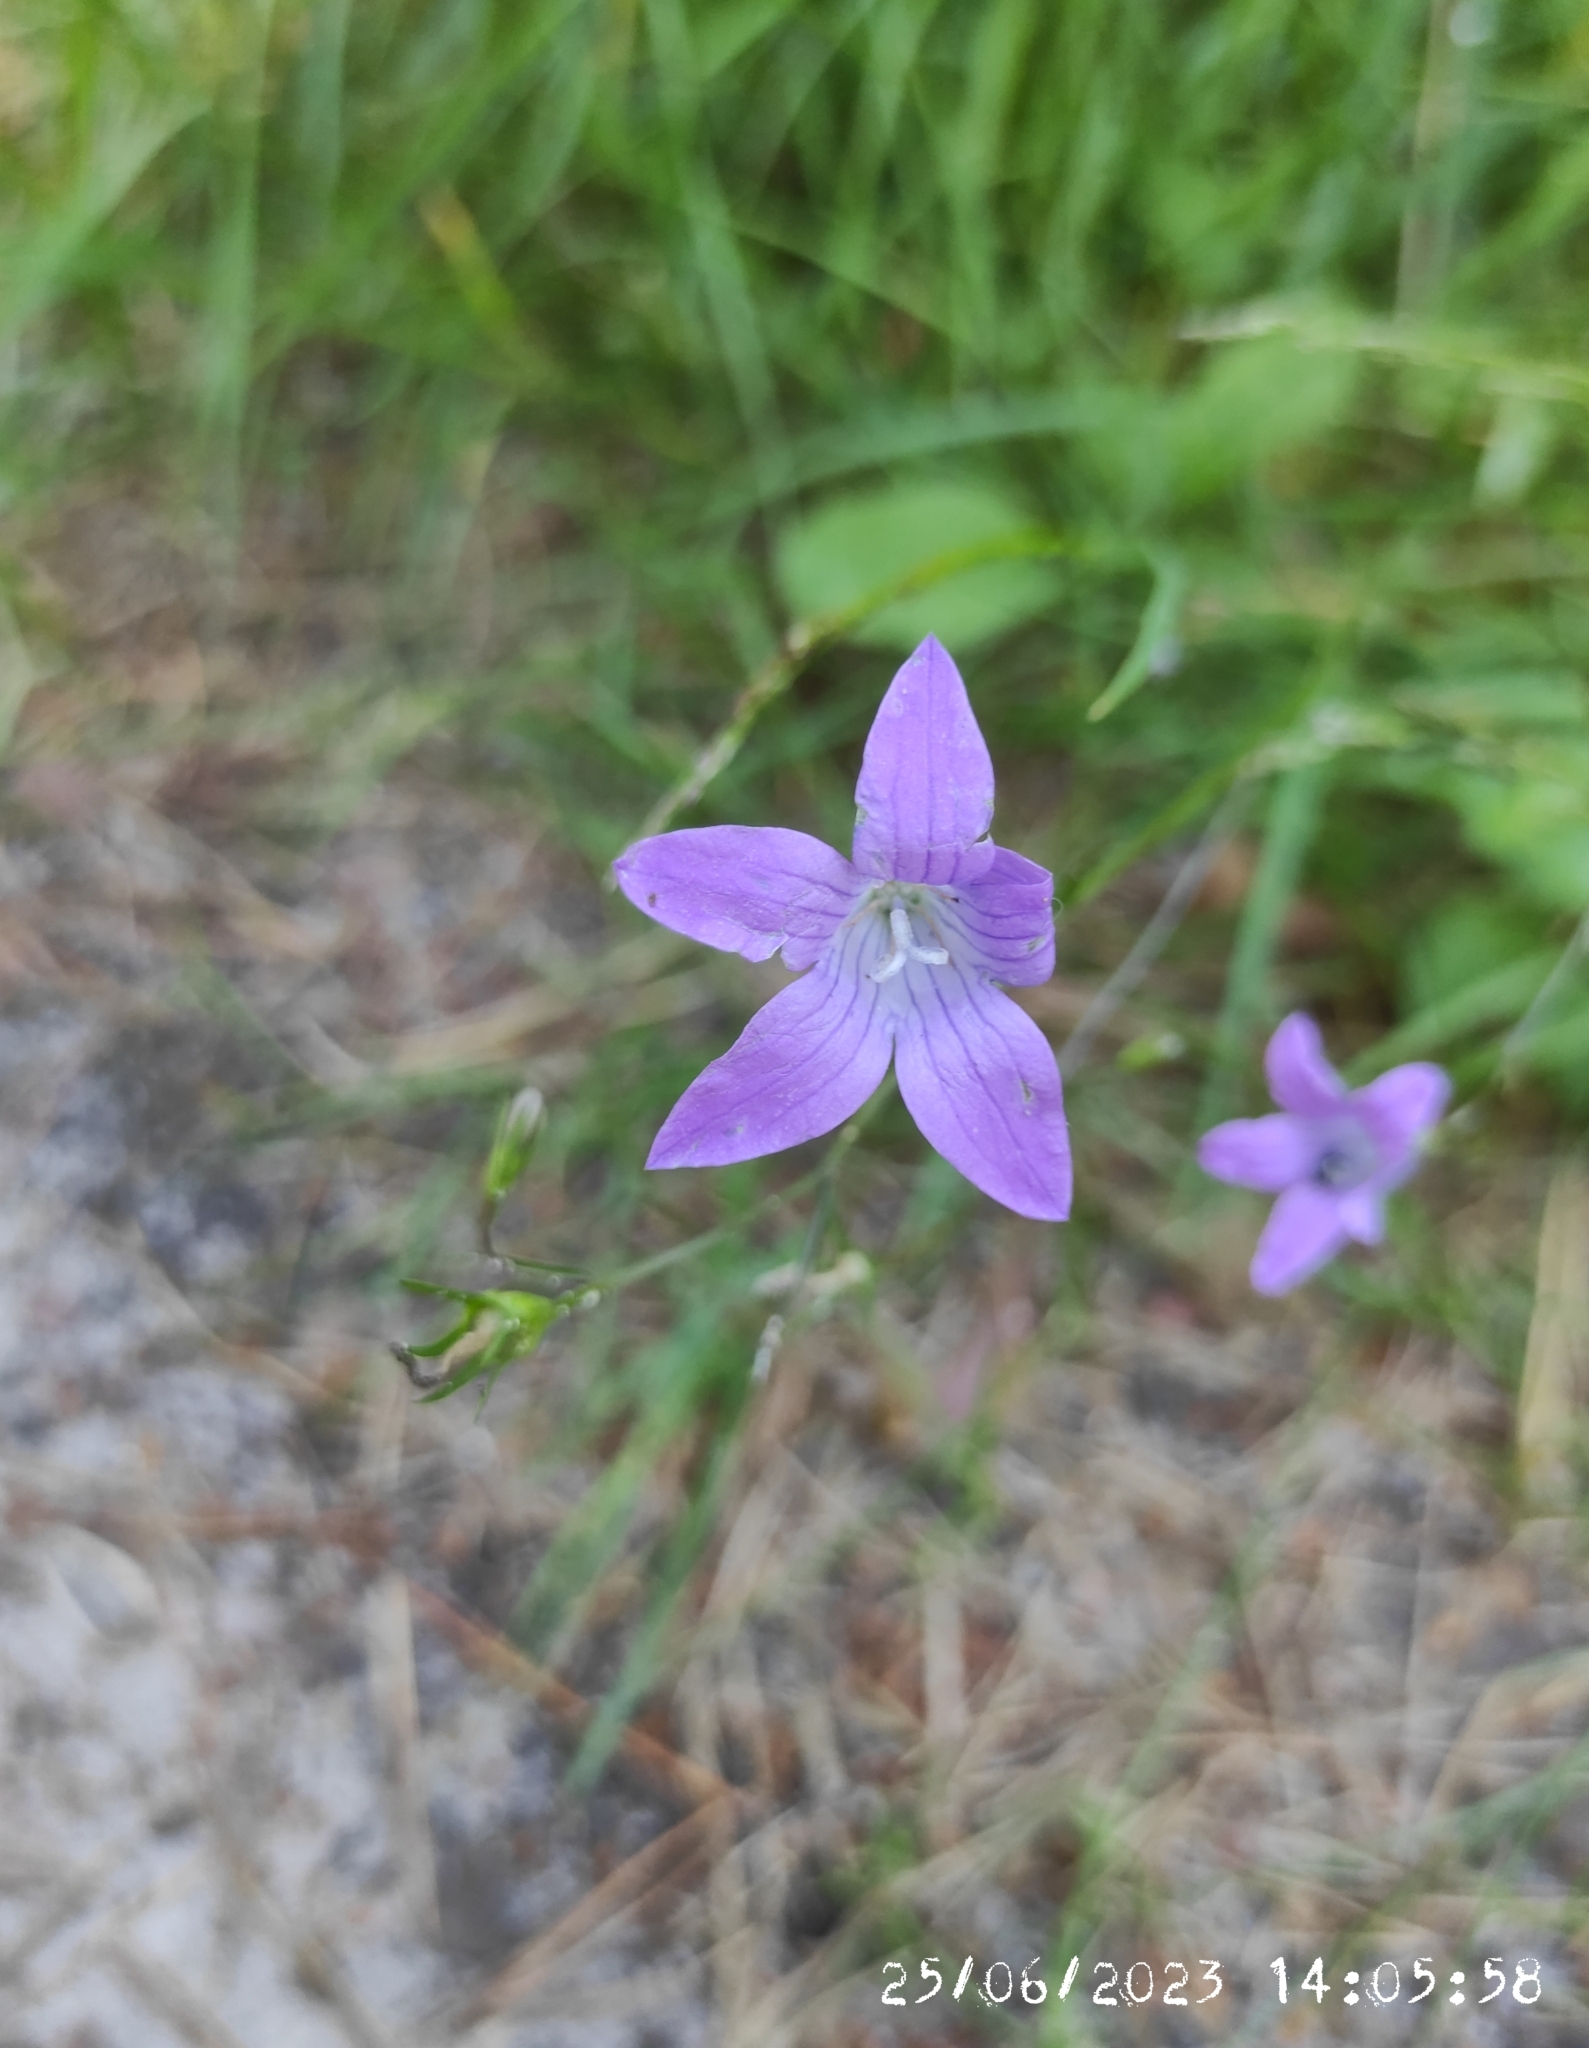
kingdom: Plantae
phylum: Tracheophyta
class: Magnoliopsida
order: Asterales
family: Campanulaceae
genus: Campanula
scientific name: Campanula patula
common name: Spreading bellflower
